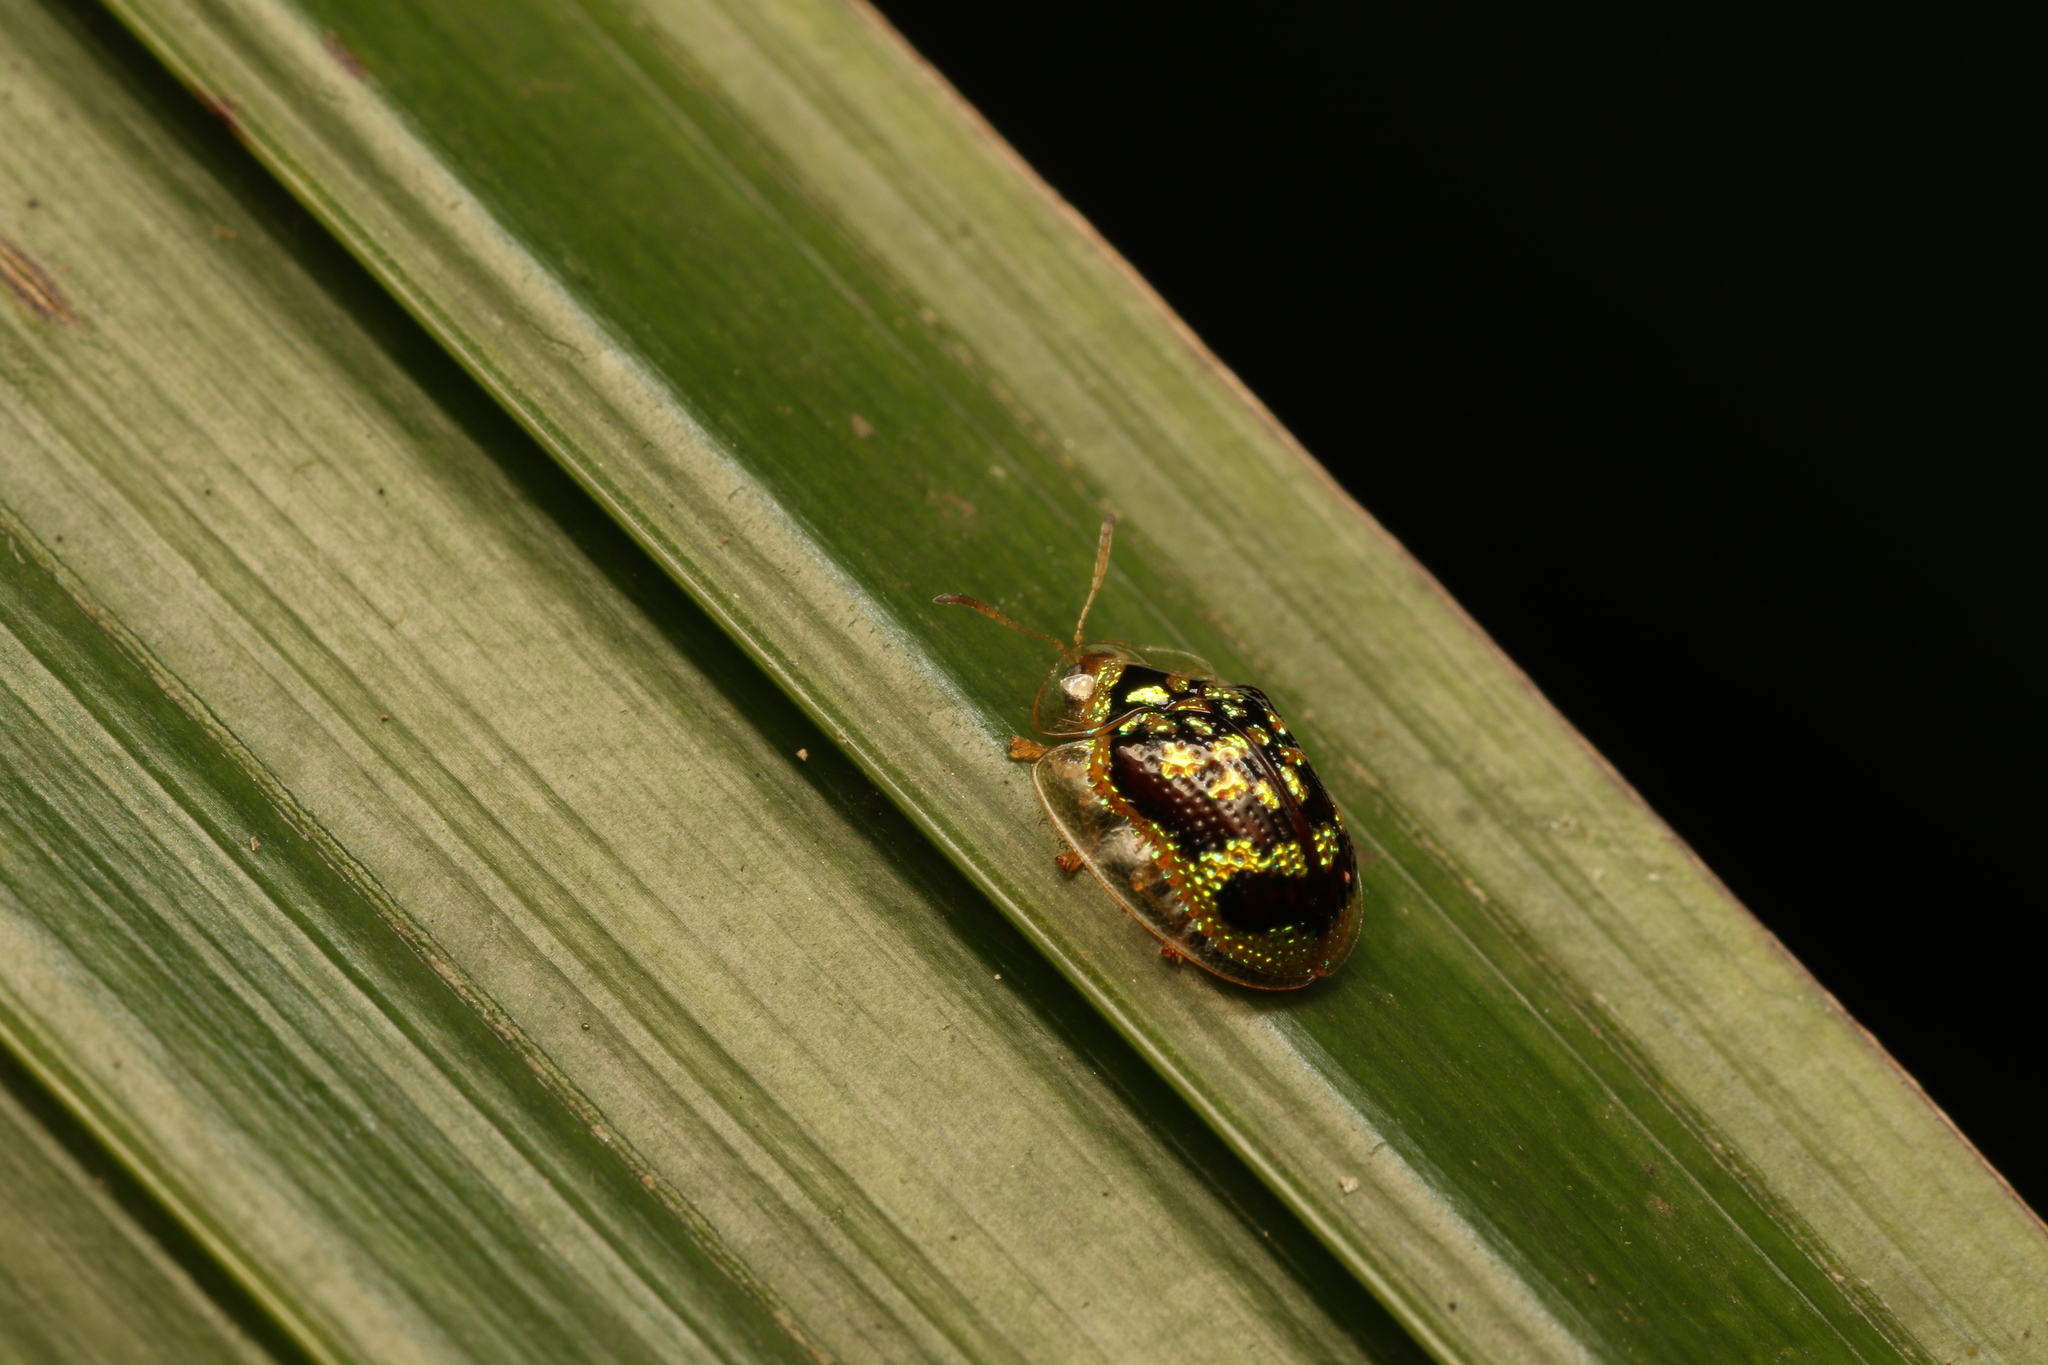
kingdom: Animalia
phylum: Arthropoda
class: Insecta
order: Coleoptera
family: Chrysomelidae
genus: Microctenochira
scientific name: Microctenochira brasiliensis
